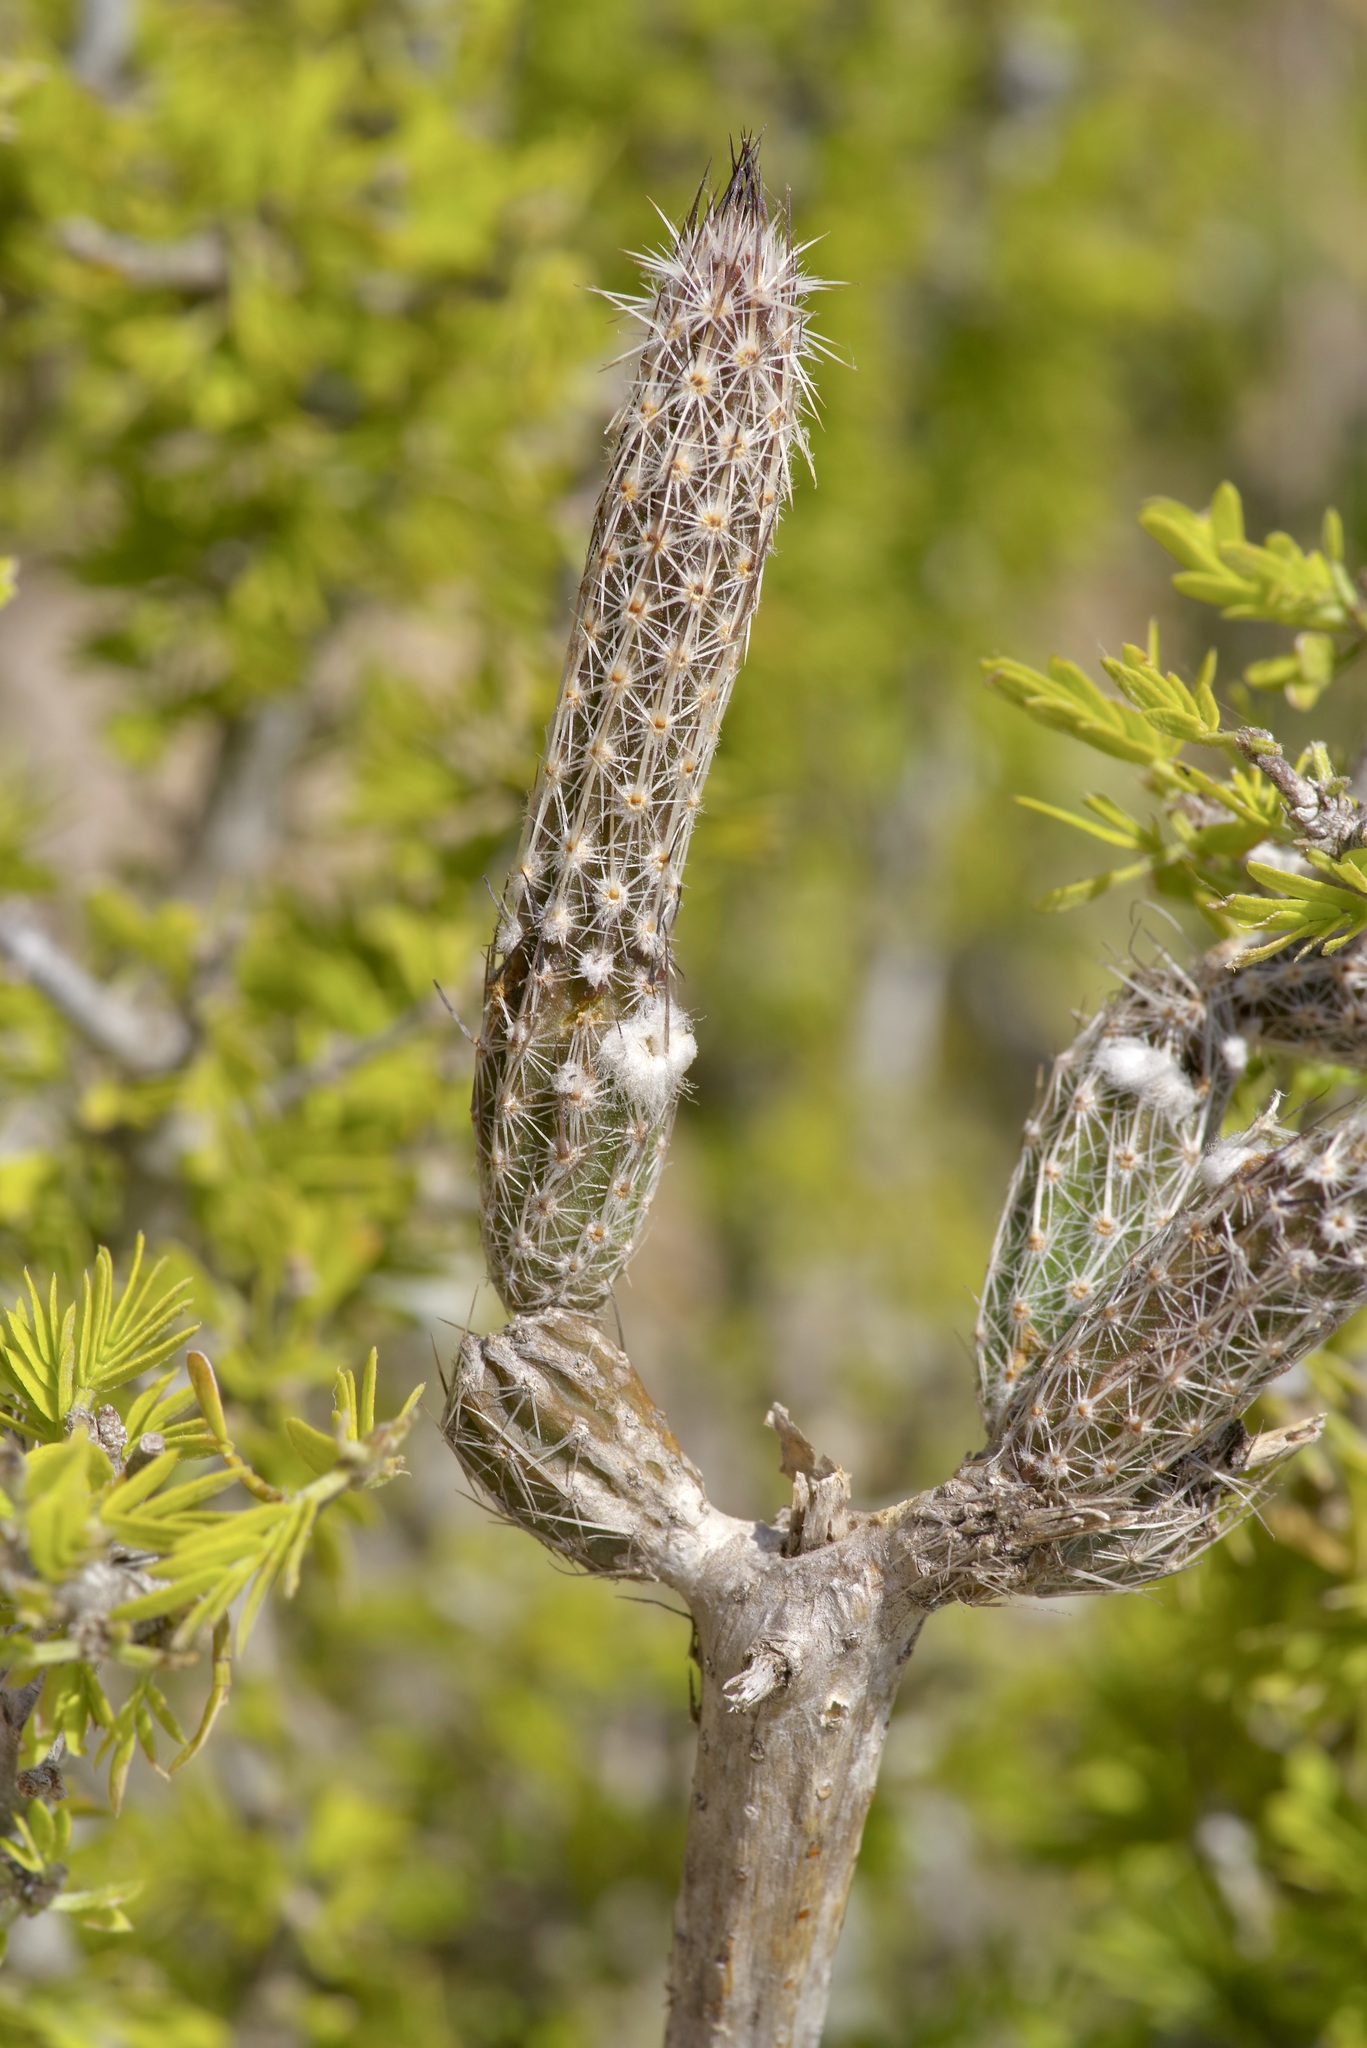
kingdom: Plantae
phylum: Tracheophyta
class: Magnoliopsida
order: Caryophyllales
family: Cactaceae
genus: Echinocereus
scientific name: Echinocereus poselgeri
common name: Dahlia apple cactus
